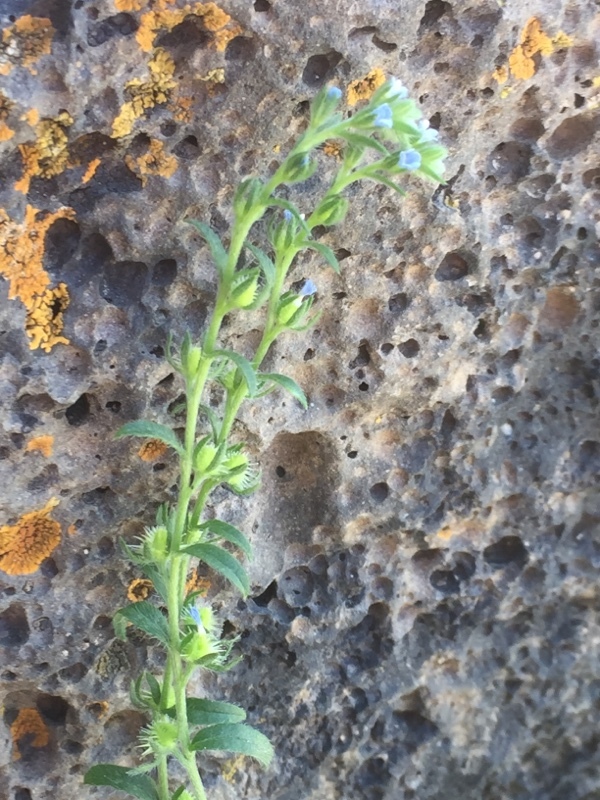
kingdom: Plantae
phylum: Tracheophyta
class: Magnoliopsida
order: Boraginales
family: Boraginaceae
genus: Asperugo
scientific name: Asperugo procumbens
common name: Madwort
